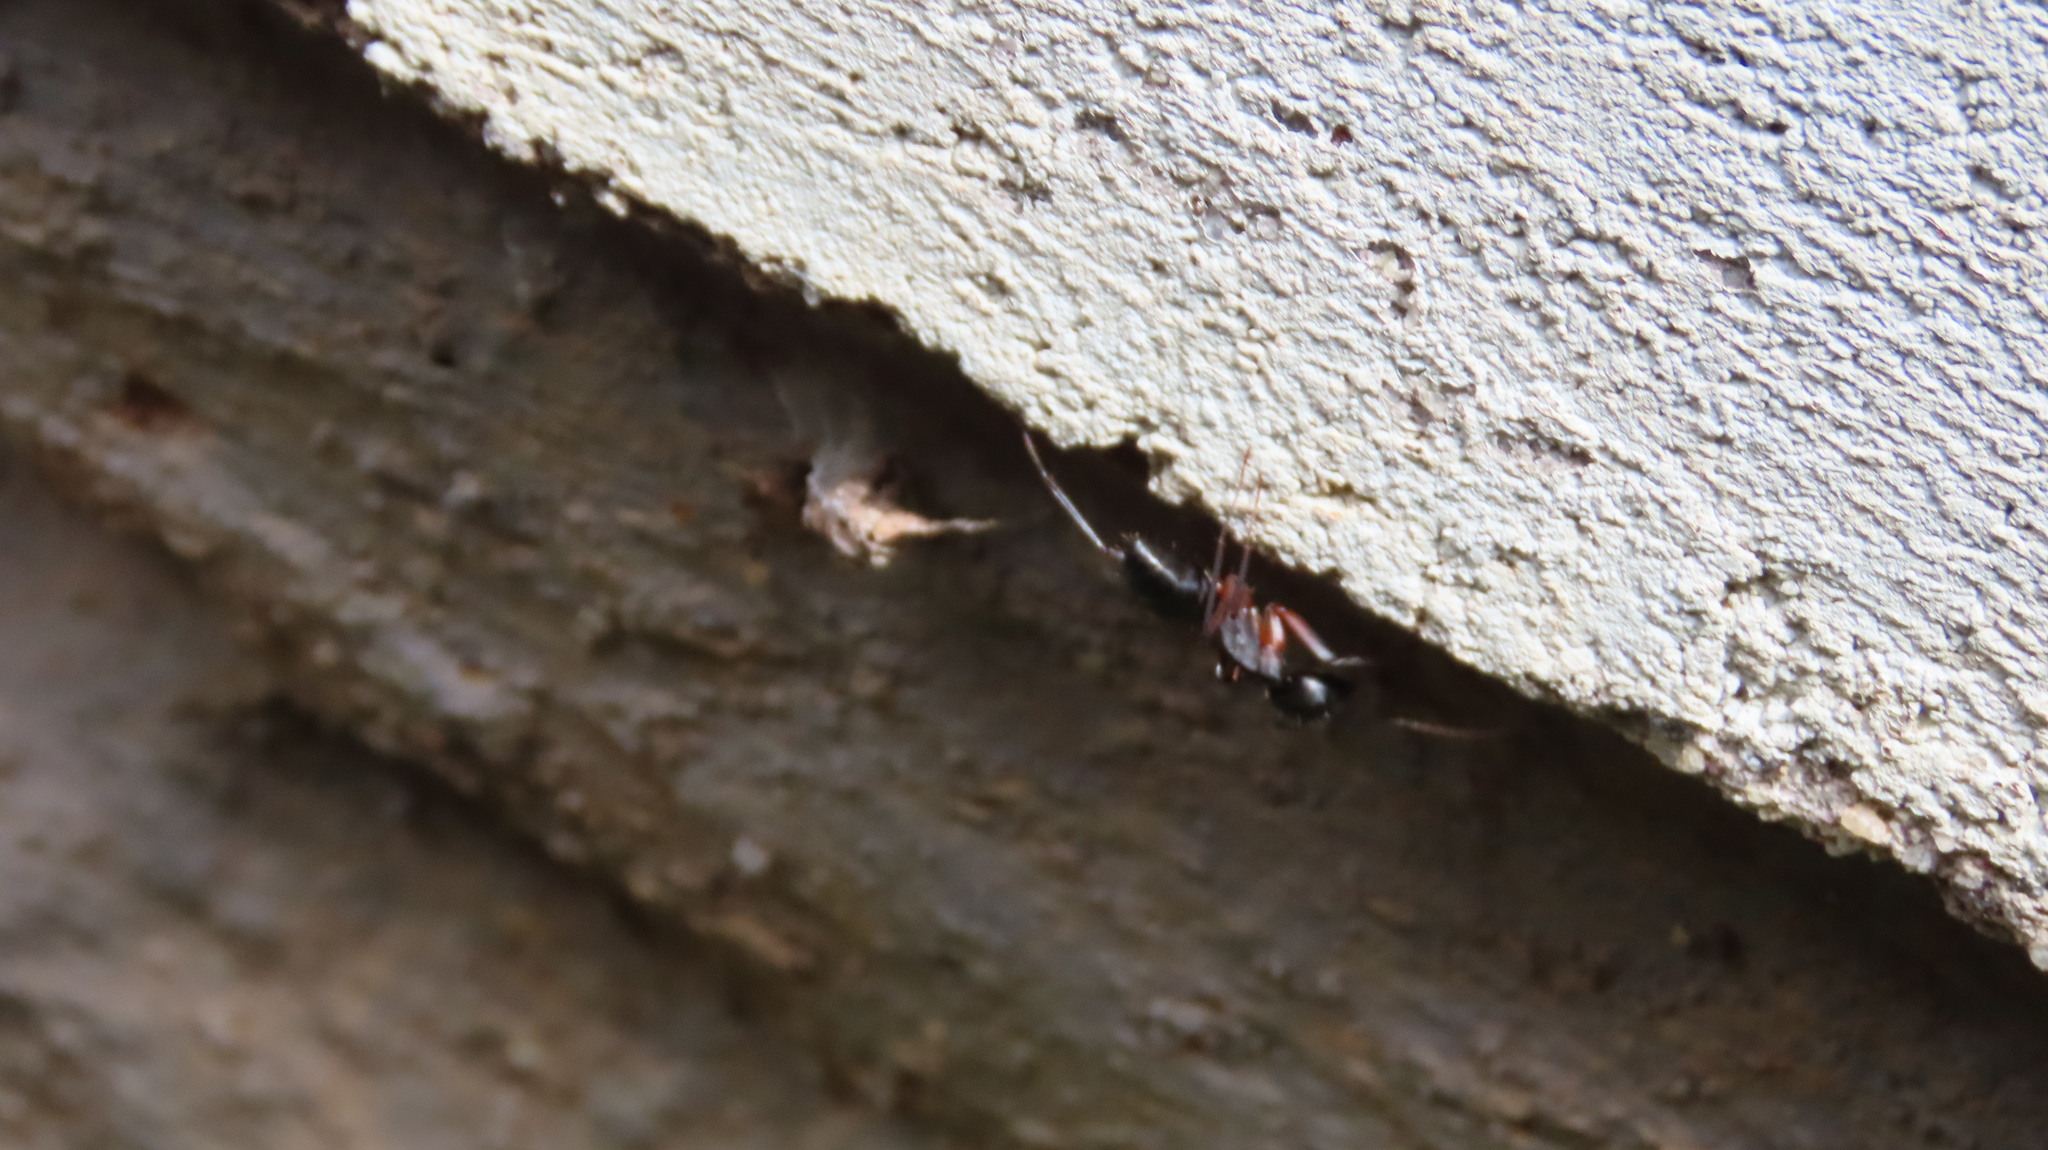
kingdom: Animalia
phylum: Arthropoda
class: Insecta
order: Hymenoptera
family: Formicidae
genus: Camponotus
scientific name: Camponotus compressus
